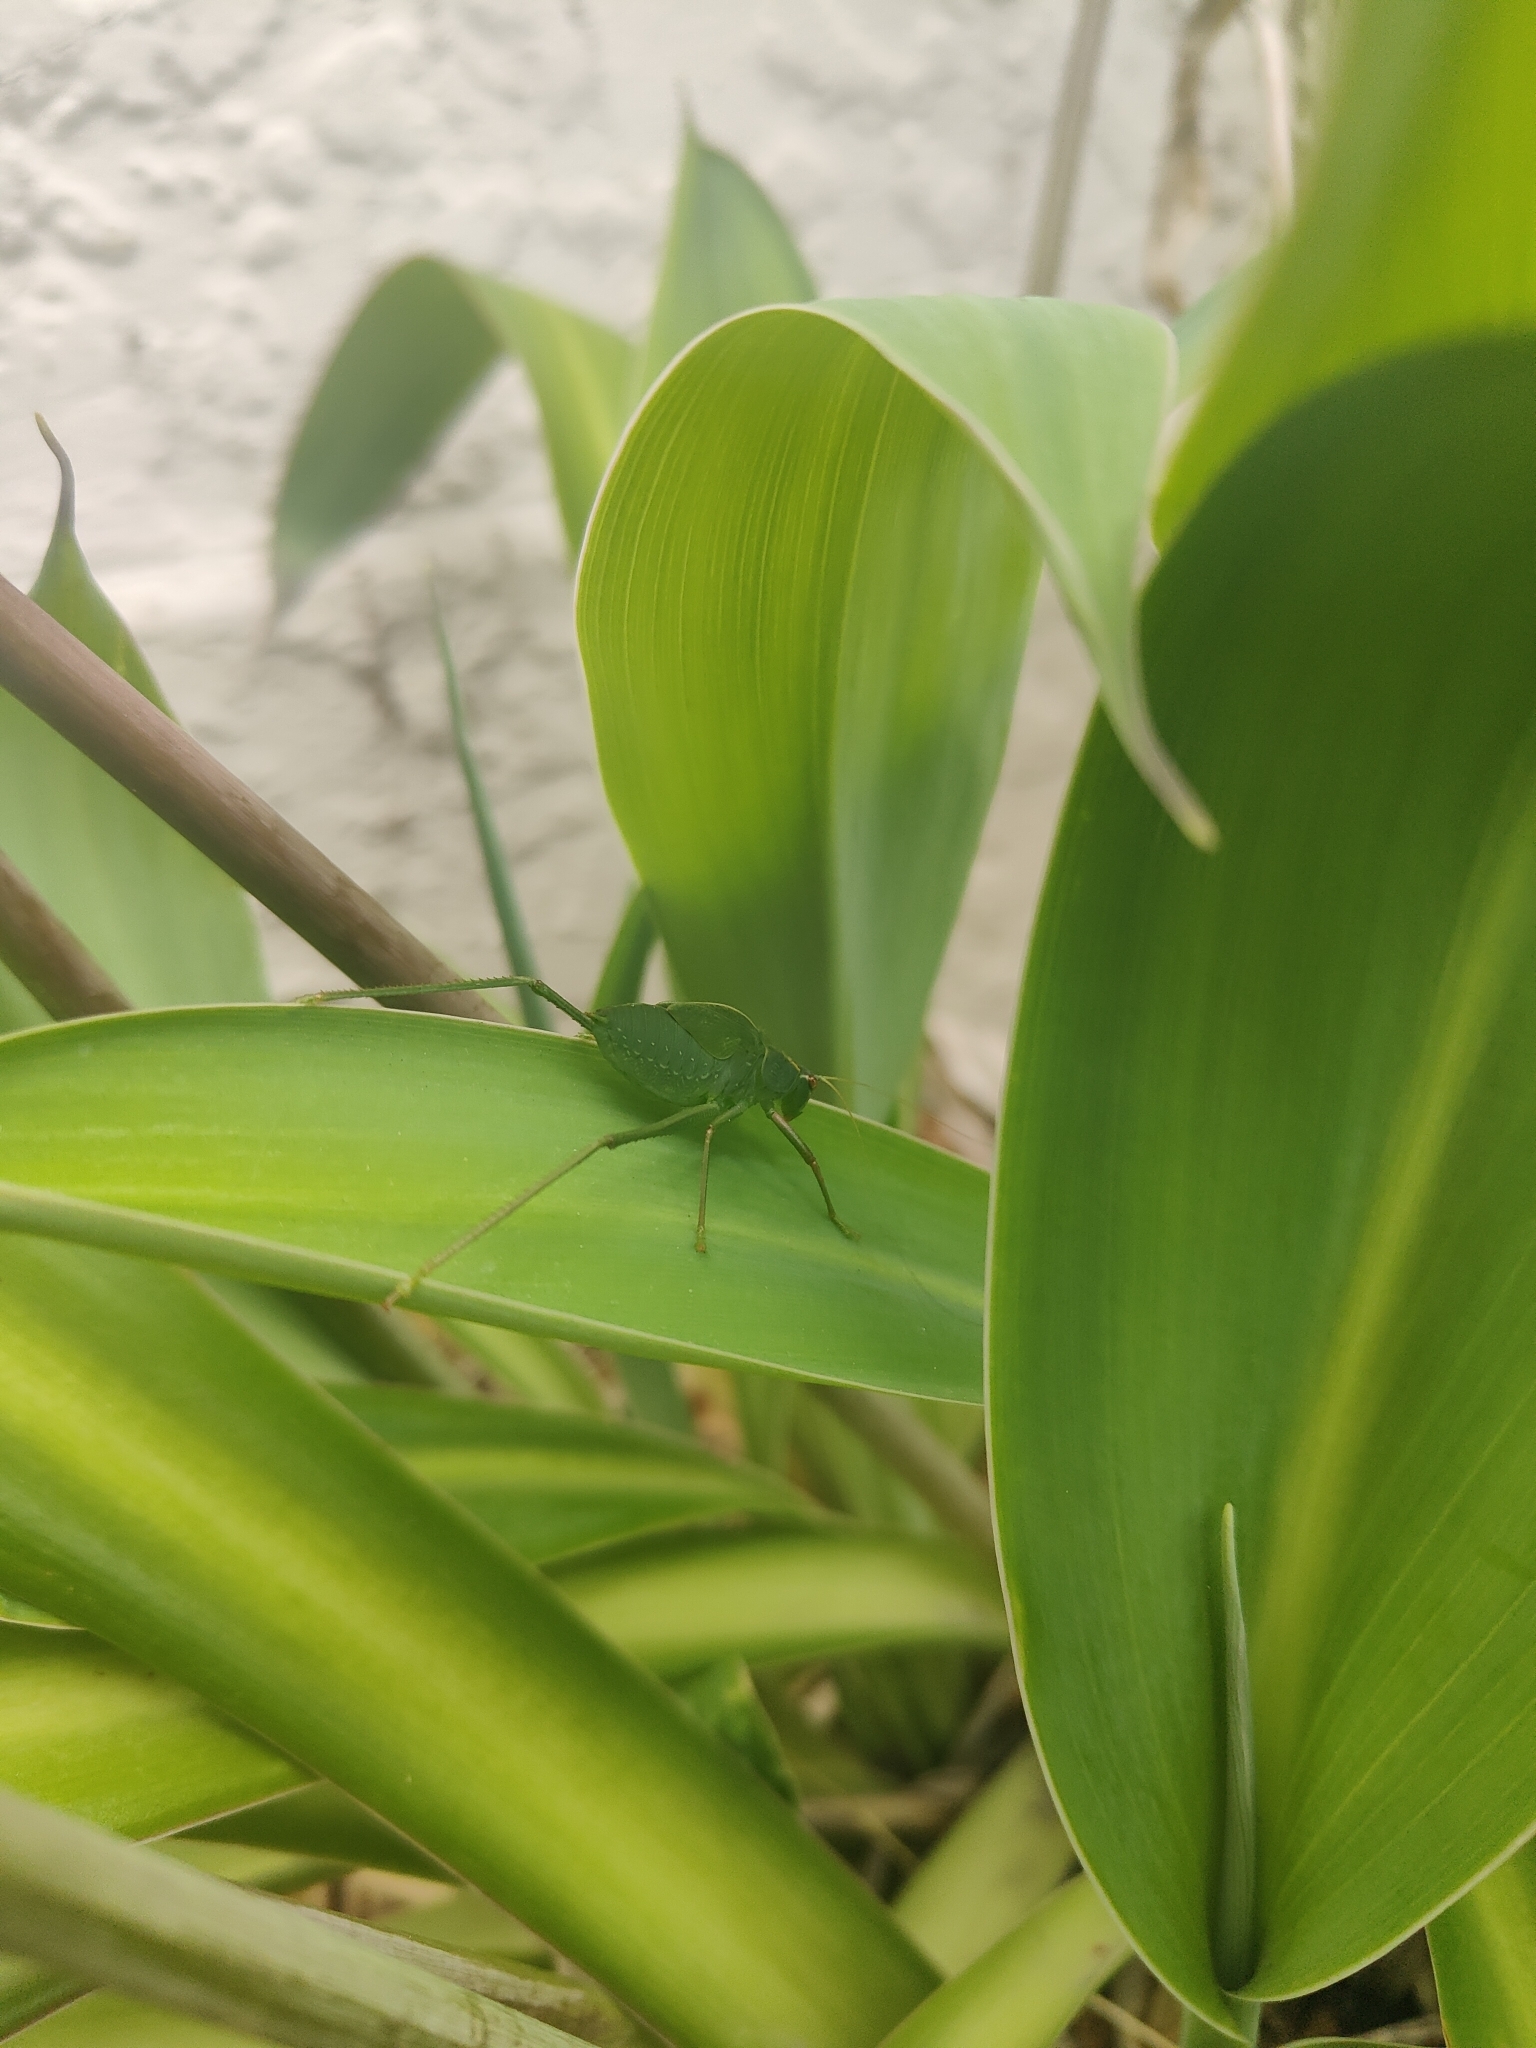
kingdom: Animalia
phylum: Arthropoda
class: Insecta
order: Orthoptera
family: Tettigoniidae
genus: Caedicia
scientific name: Caedicia simplex
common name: Common garden katydid
